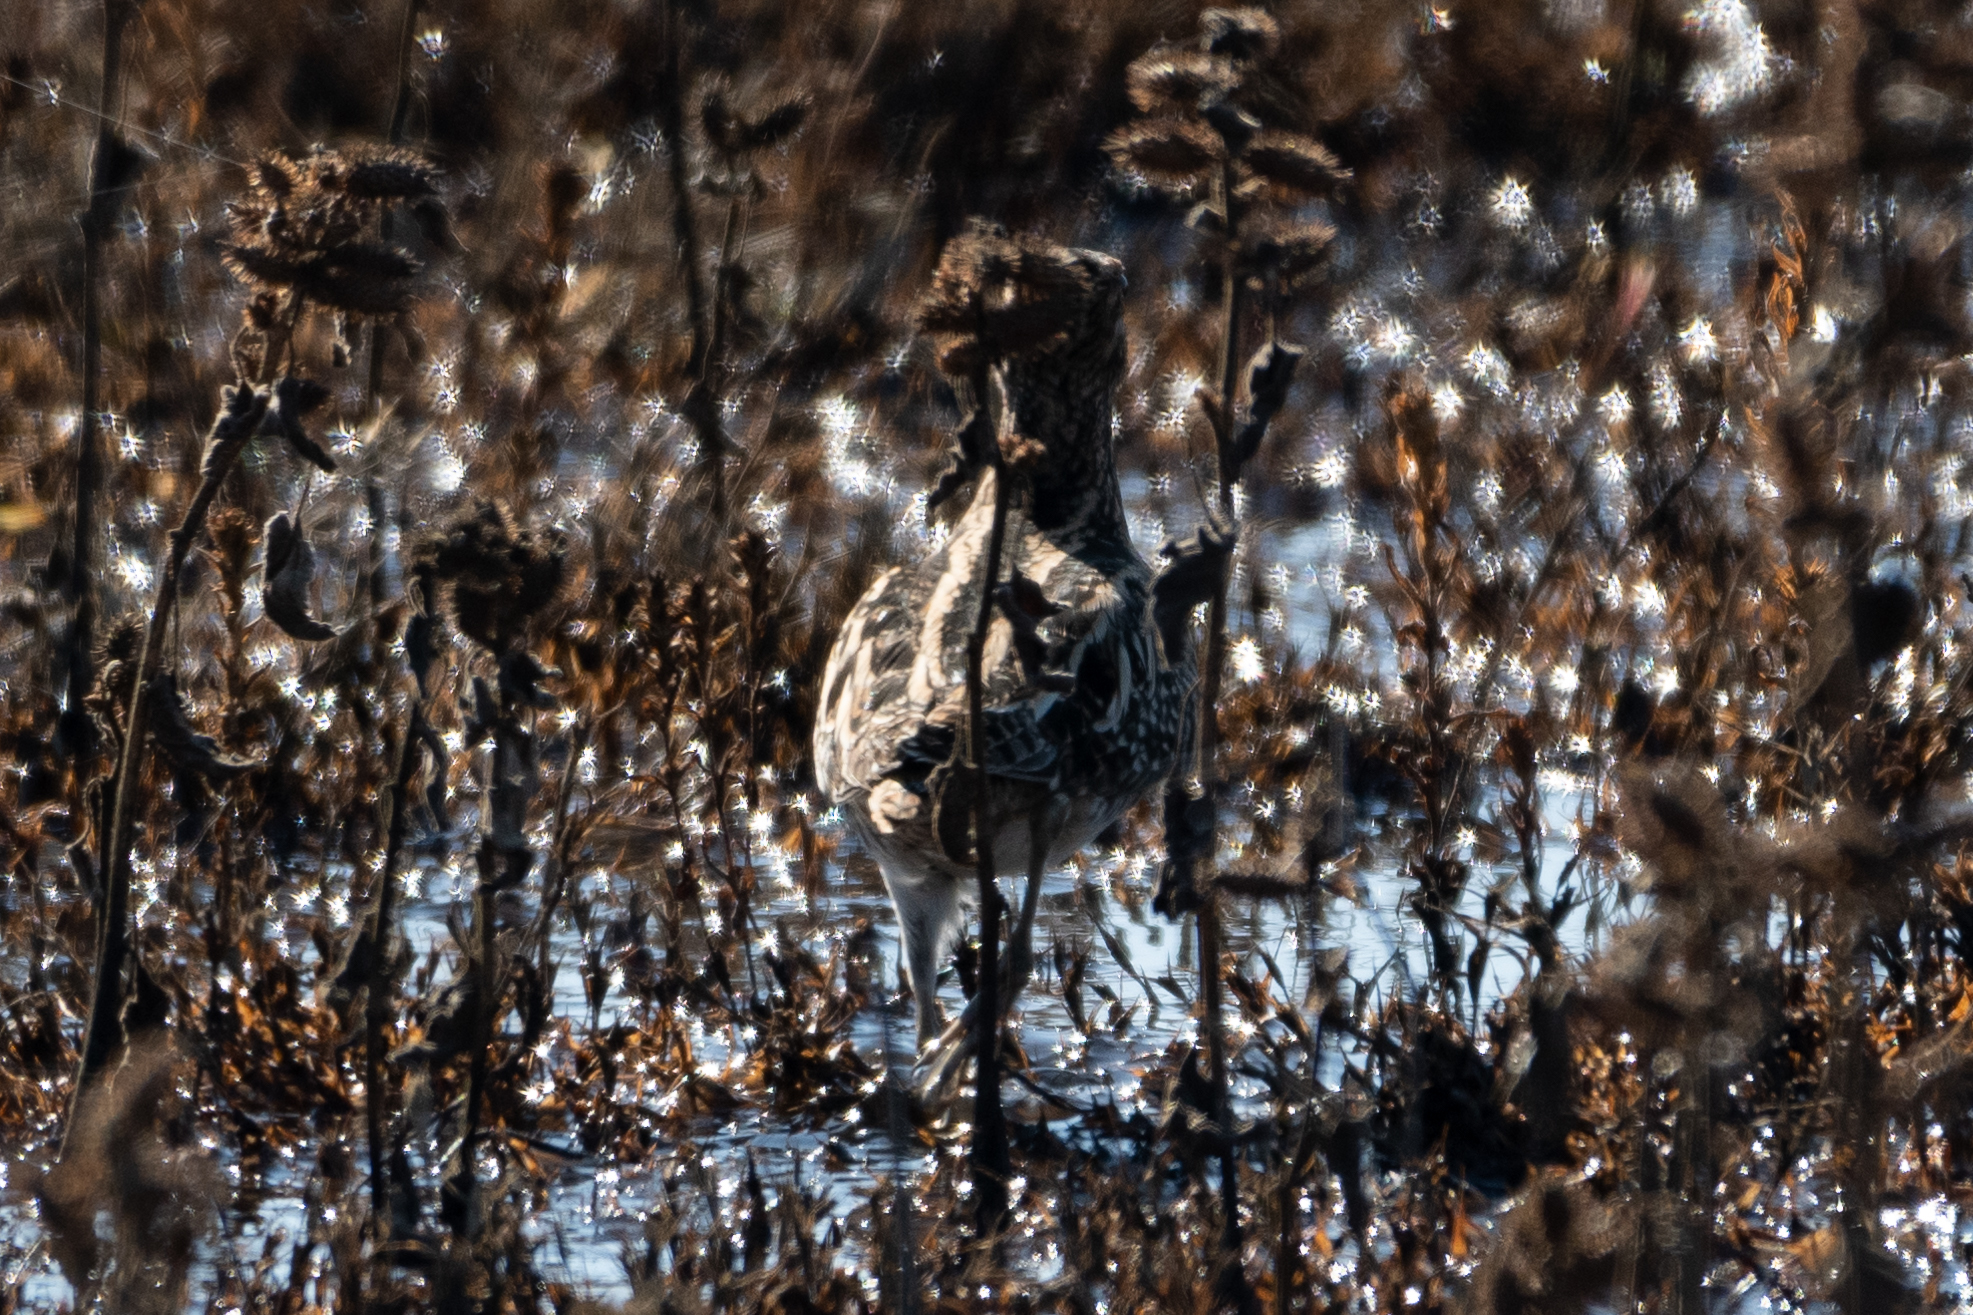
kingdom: Animalia
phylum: Chordata
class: Aves
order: Charadriiformes
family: Scolopacidae
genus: Gallinago
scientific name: Gallinago delicata
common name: Wilson's snipe
